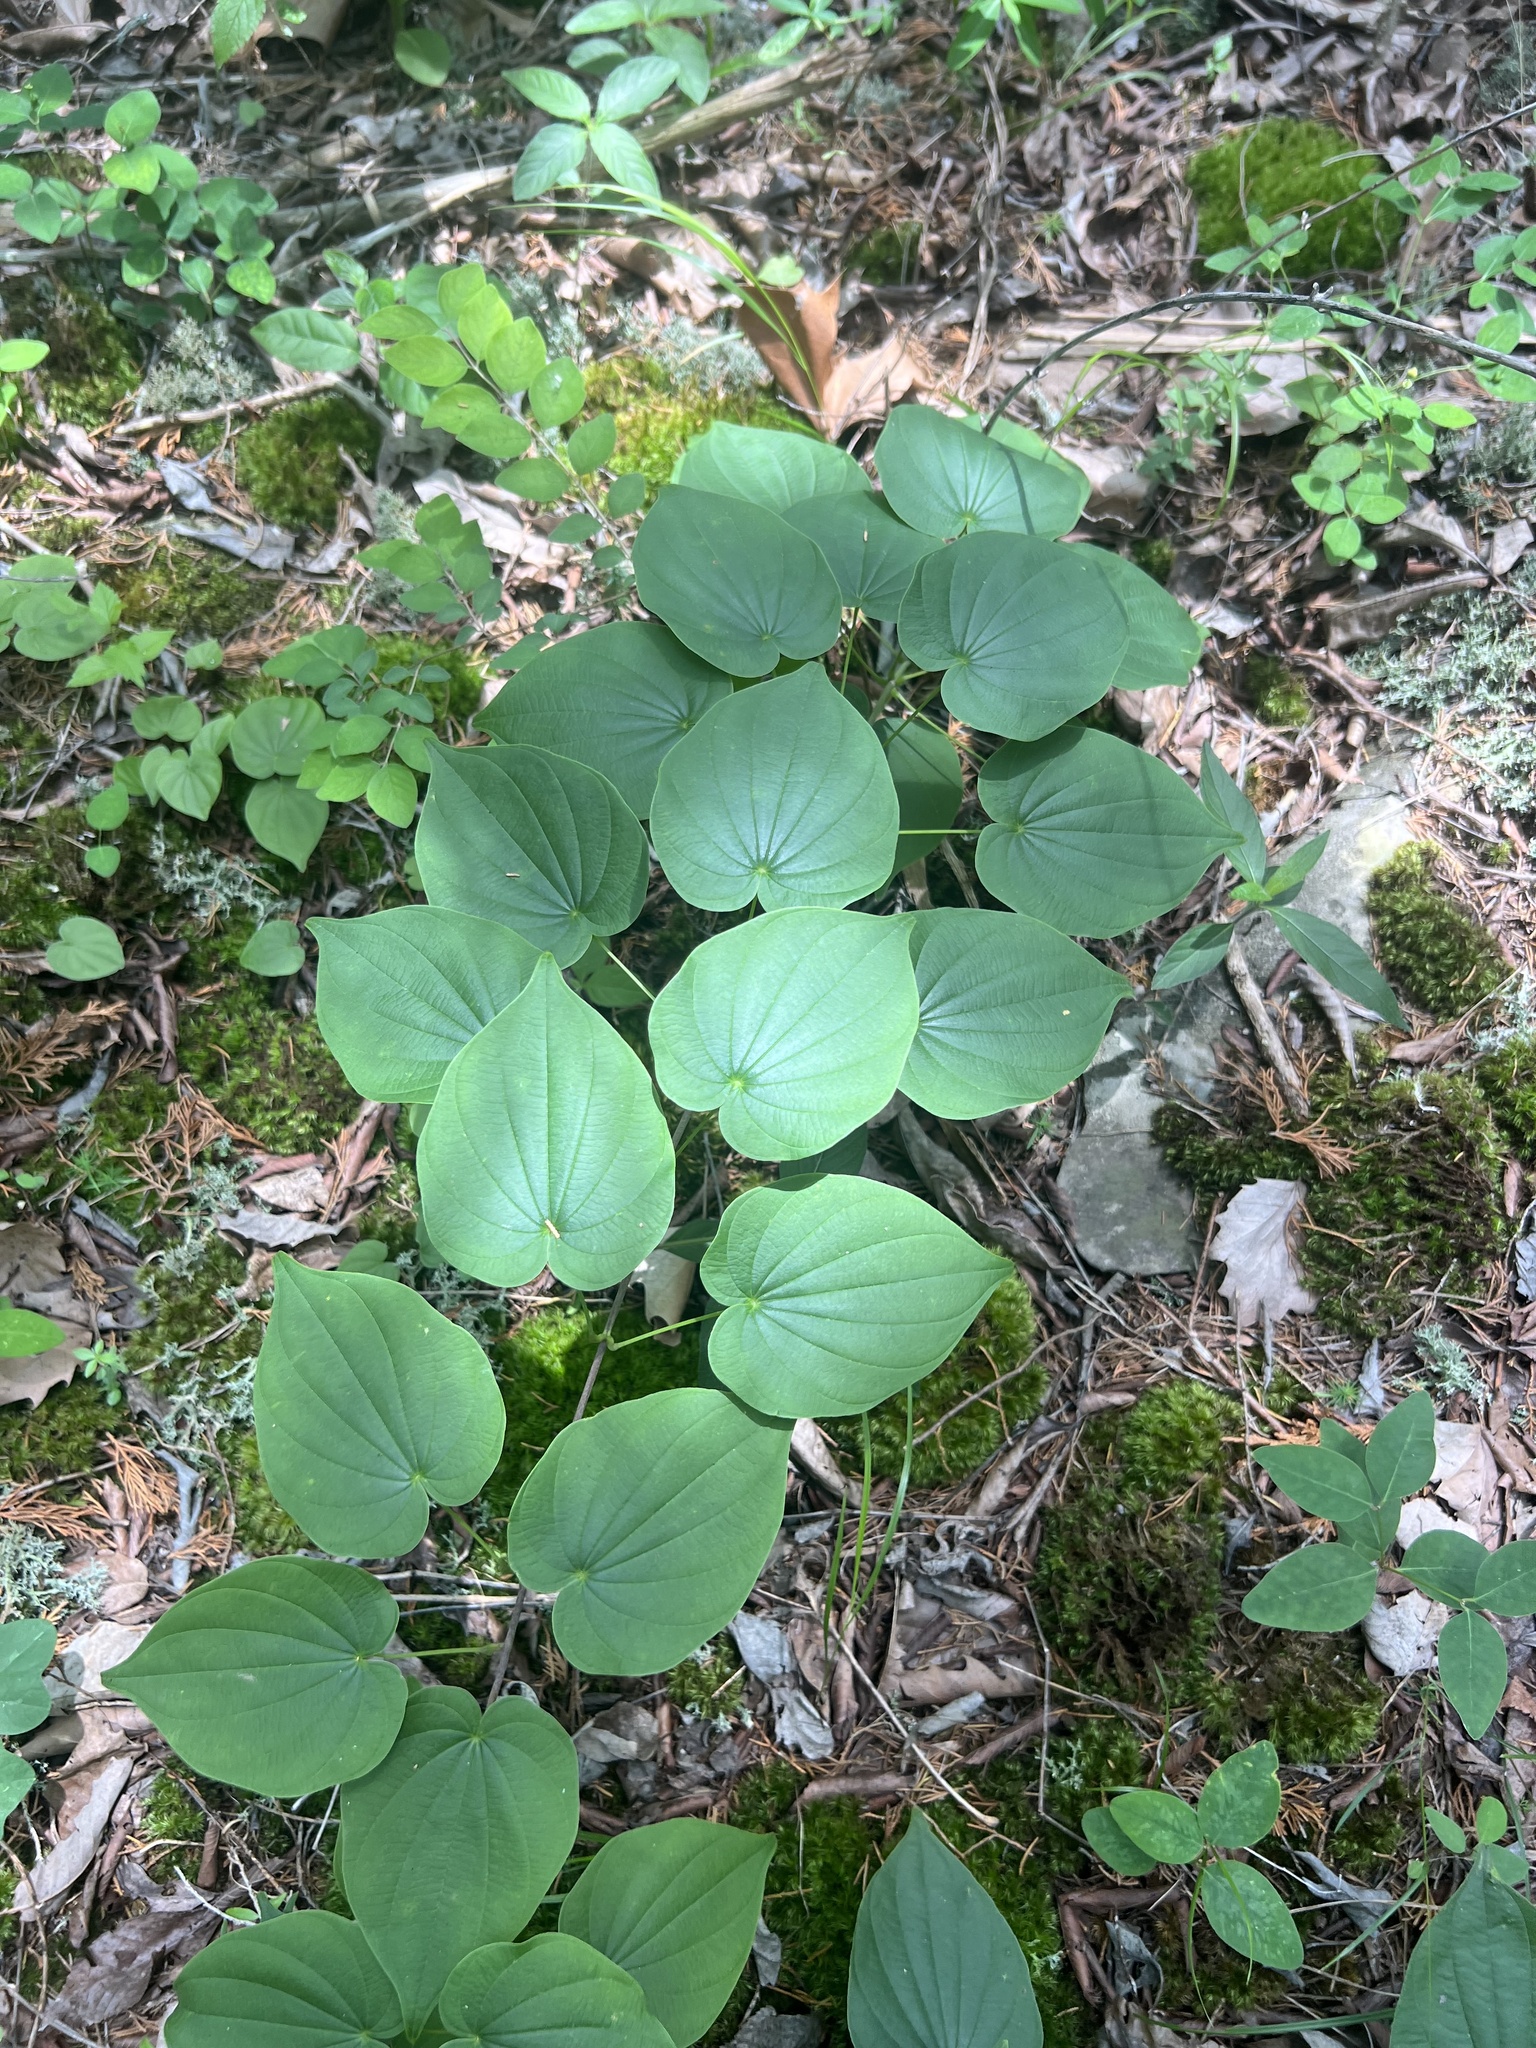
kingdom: Plantae
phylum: Tracheophyta
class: Liliopsida
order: Dioscoreales
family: Dioscoreaceae
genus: Dioscorea
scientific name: Dioscorea villosa
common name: Wild yam
